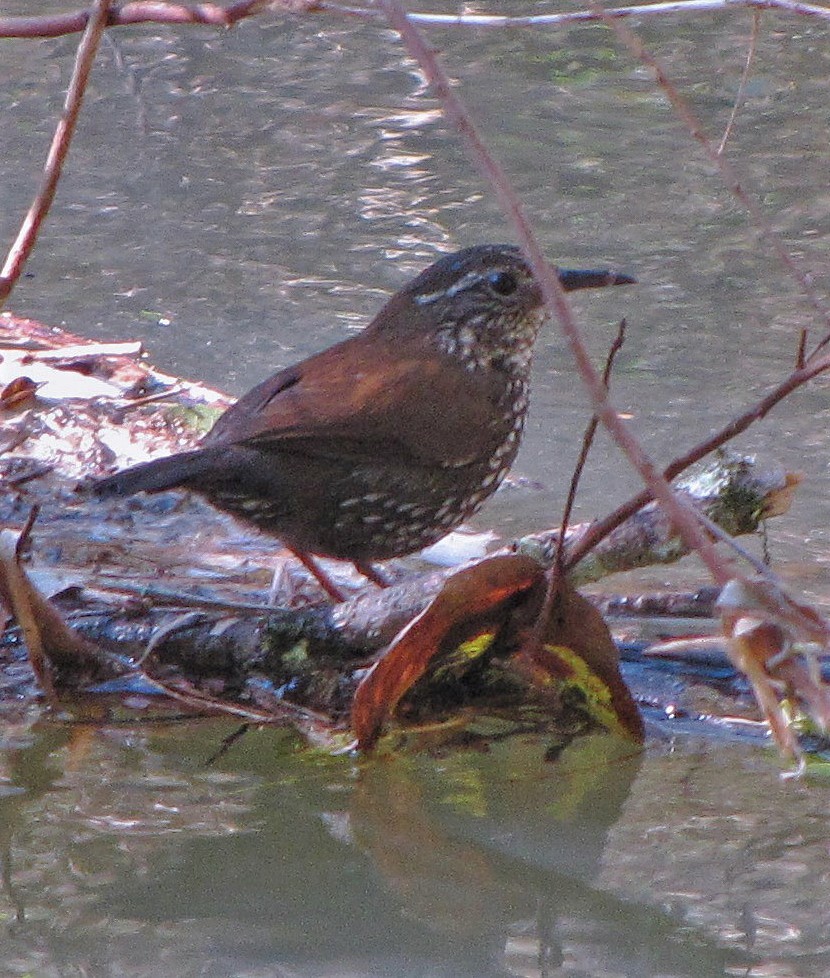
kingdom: Animalia
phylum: Chordata
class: Aves
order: Passeriformes
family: Furnariidae
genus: Lochmias
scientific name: Lochmias nematura
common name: Sharp-tailed streamcreeper
